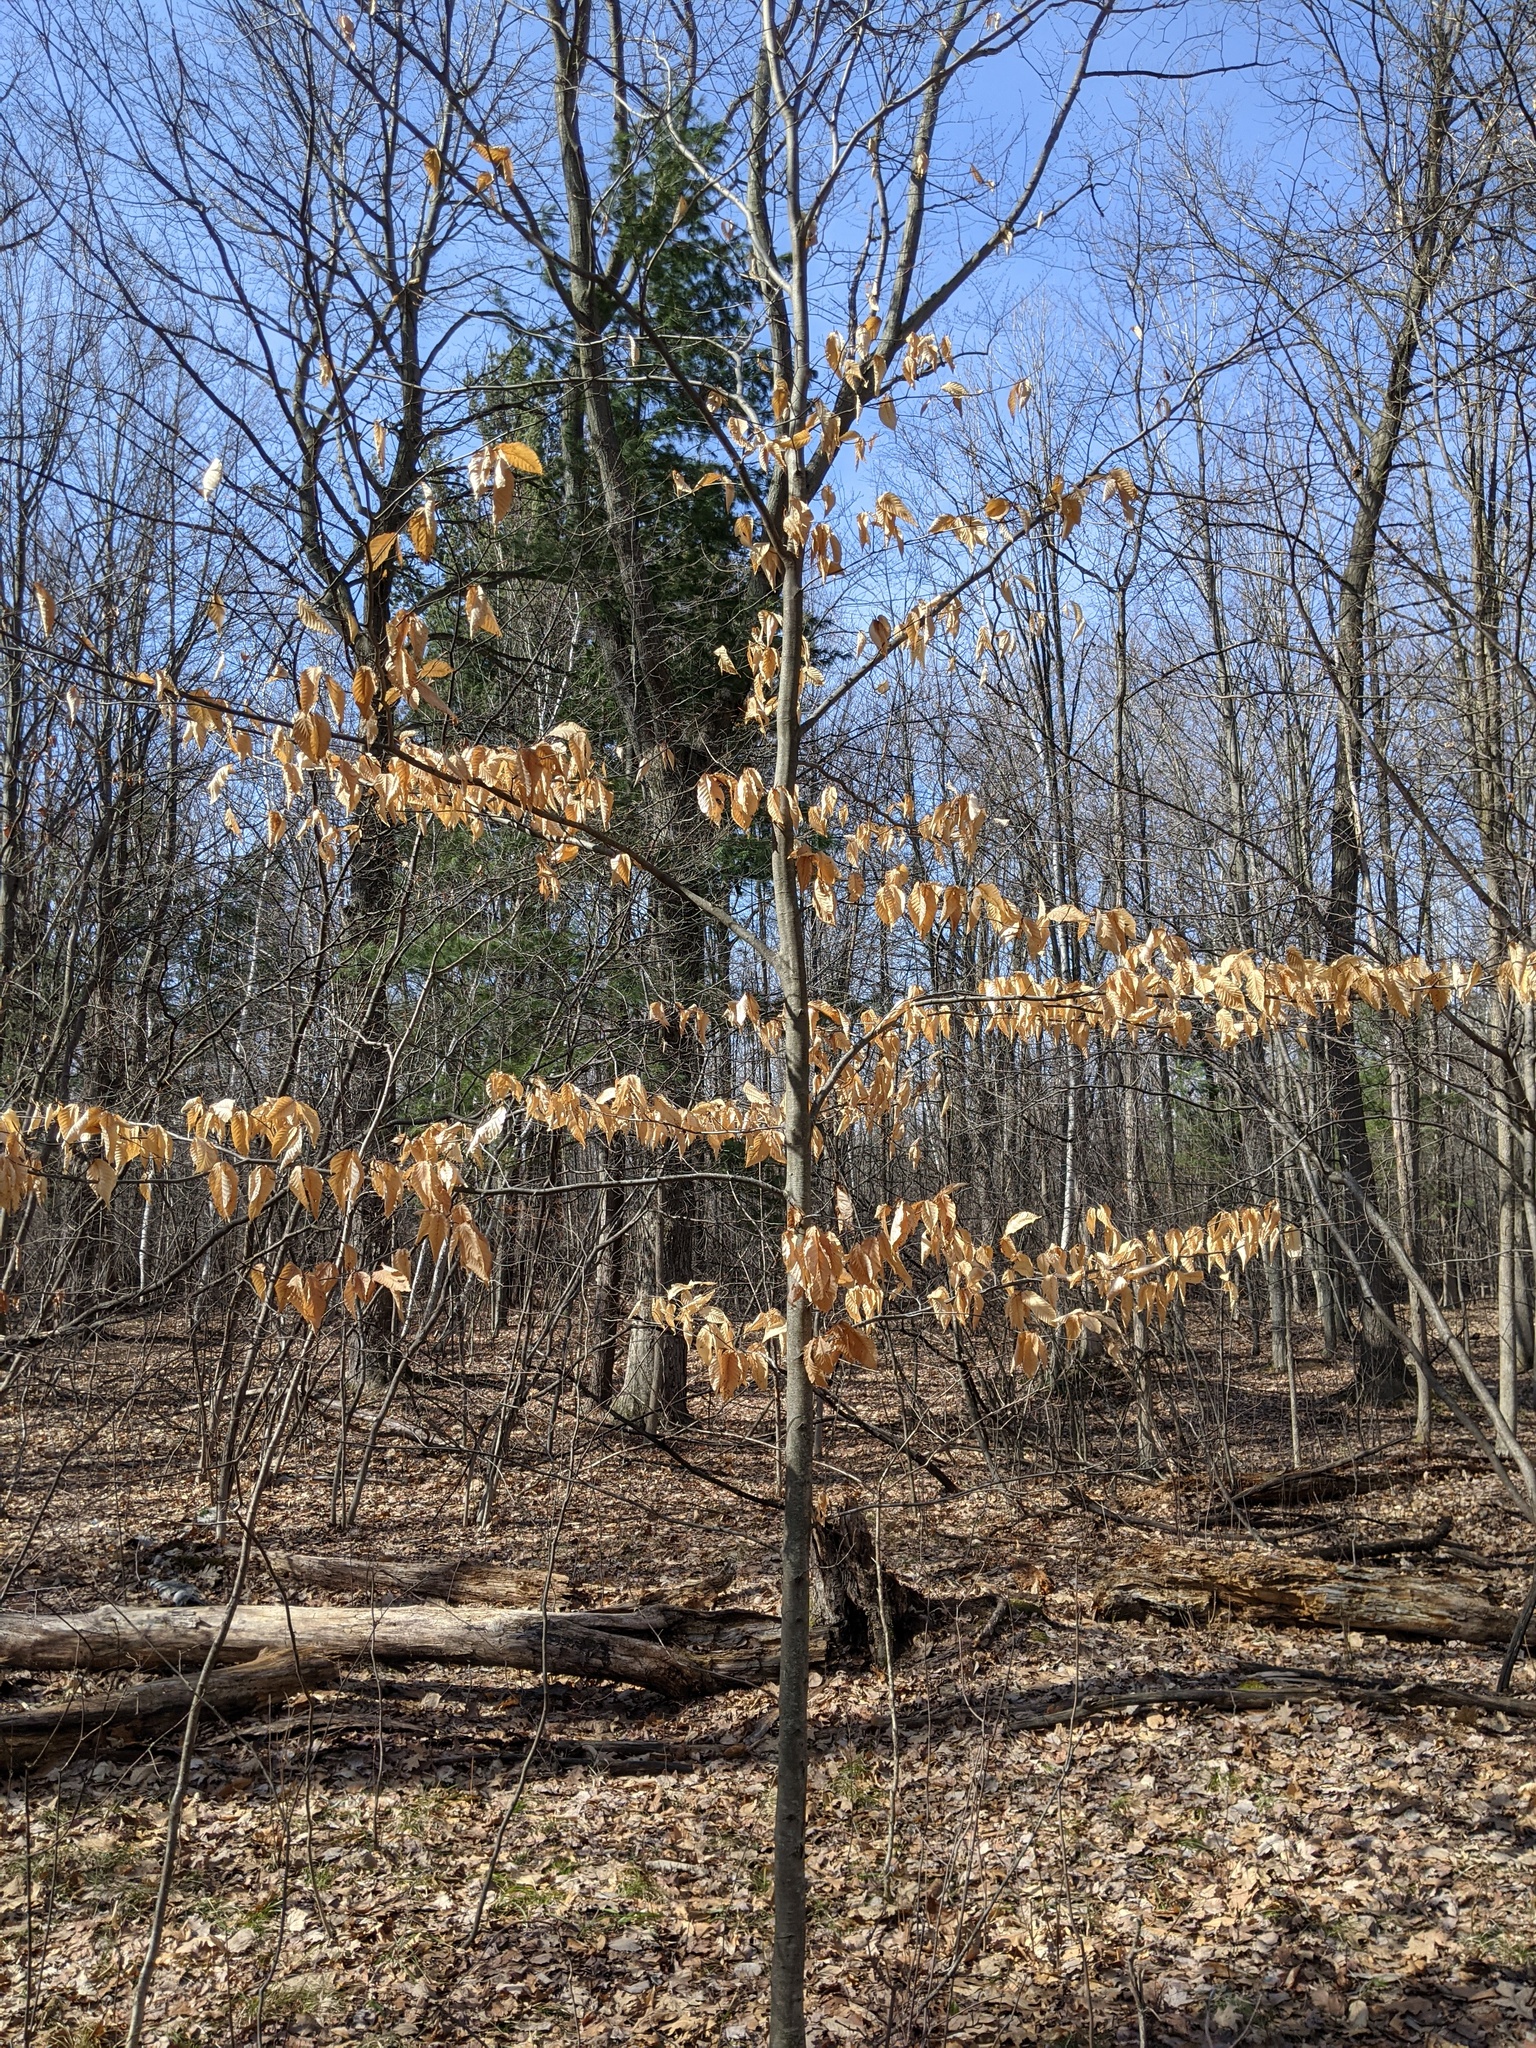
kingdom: Plantae
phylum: Tracheophyta
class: Magnoliopsida
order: Fagales
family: Fagaceae
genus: Fagus
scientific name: Fagus grandifolia
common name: American beech
